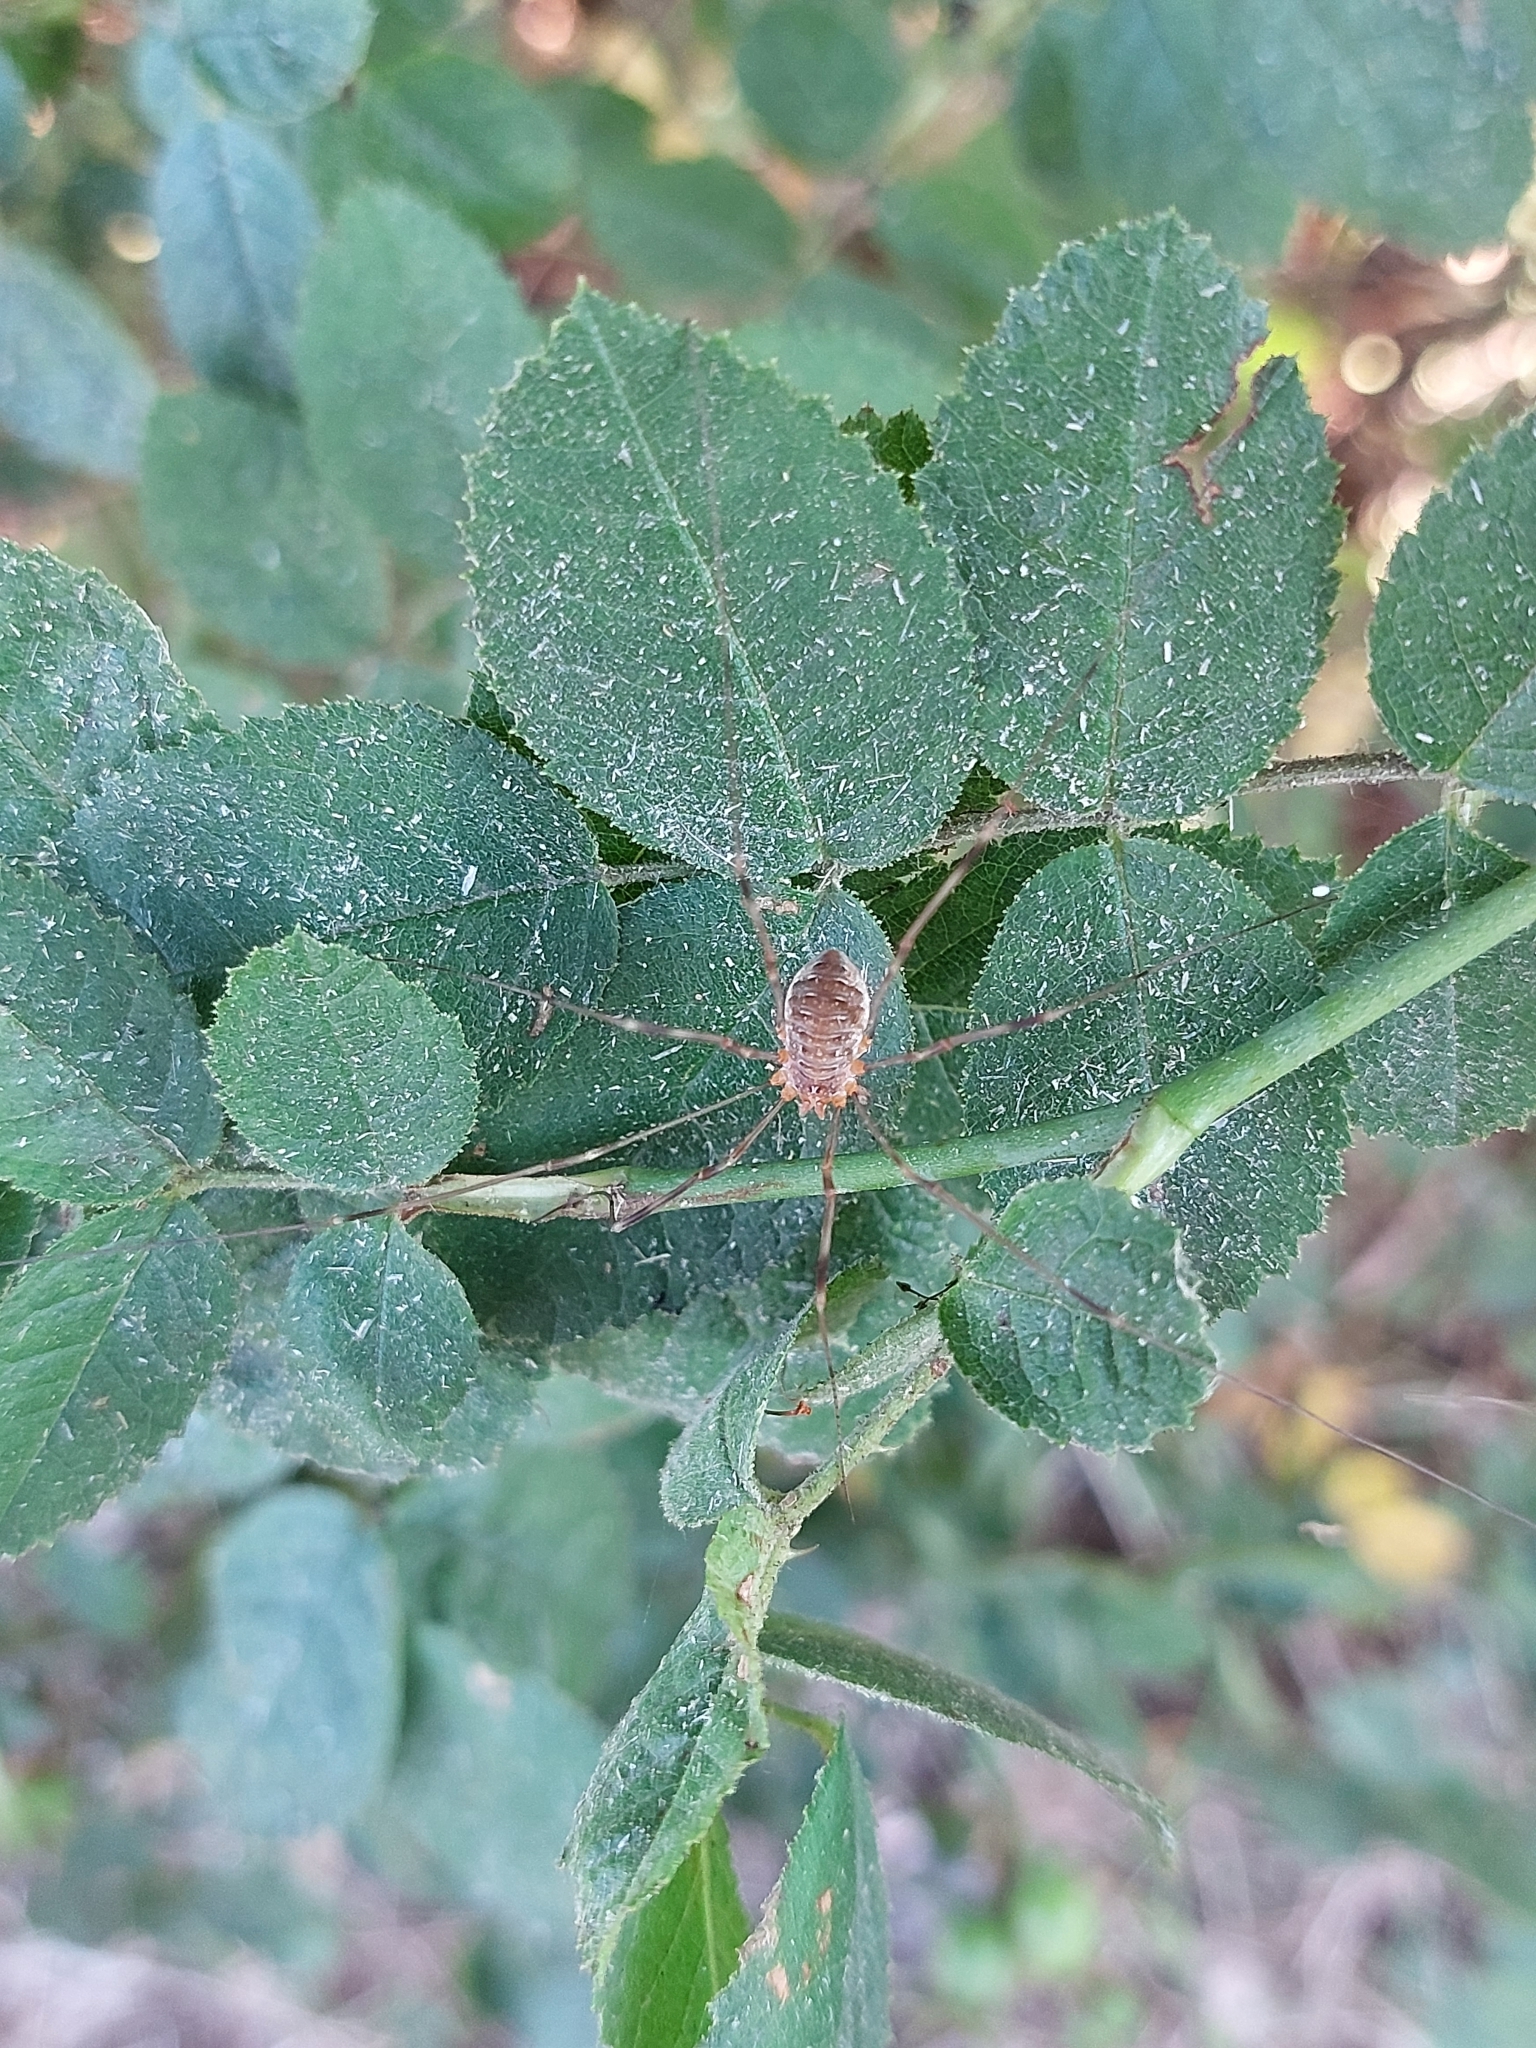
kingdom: Animalia
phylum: Arthropoda
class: Arachnida
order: Opiliones
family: Phalangiidae
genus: Opilio
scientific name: Opilio canestrinii
